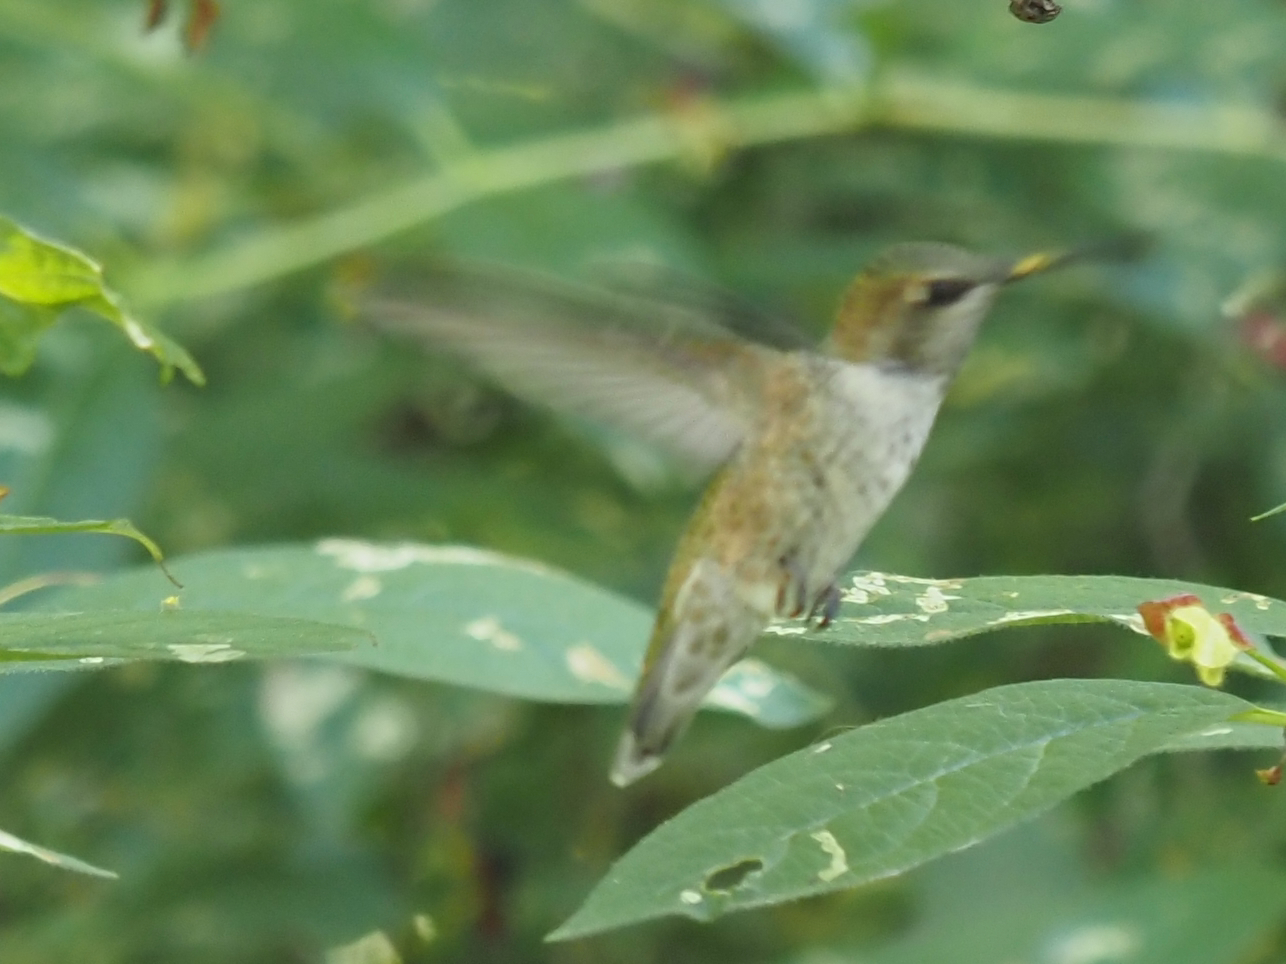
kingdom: Animalia
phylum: Chordata
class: Aves
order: Apodiformes
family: Trochilidae
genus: Calypte
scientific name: Calypte anna
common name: Anna's hummingbird
